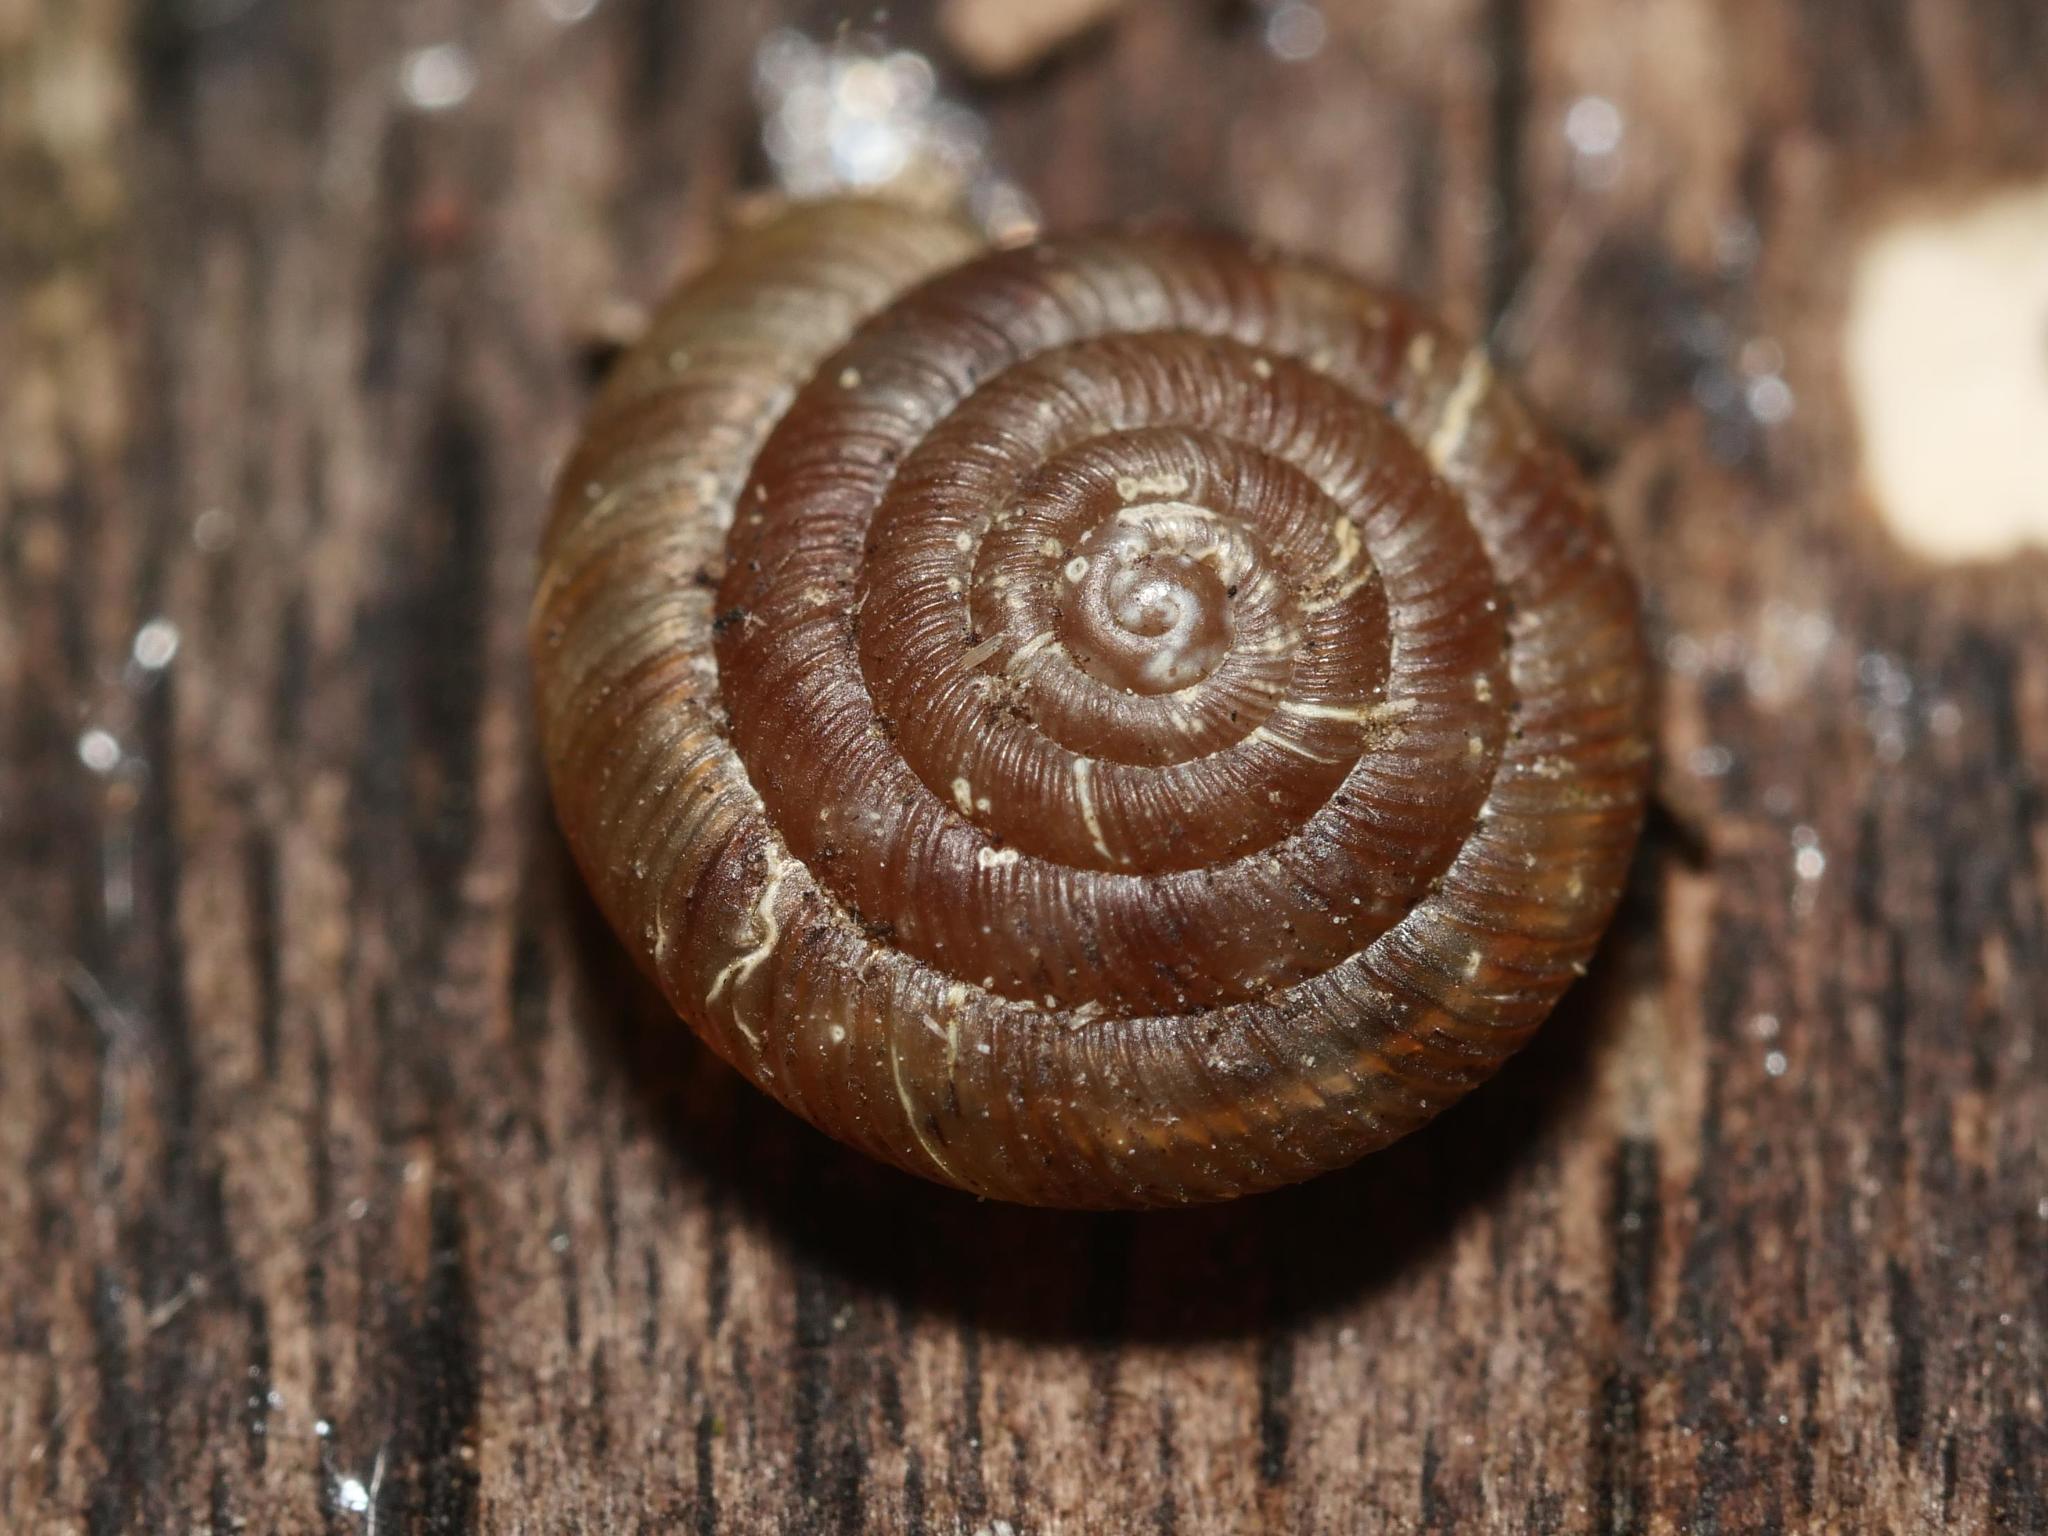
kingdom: Animalia
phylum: Mollusca
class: Gastropoda
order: Stylommatophora
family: Discidae
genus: Discus
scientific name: Discus rotundatus
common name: Rounded snail
